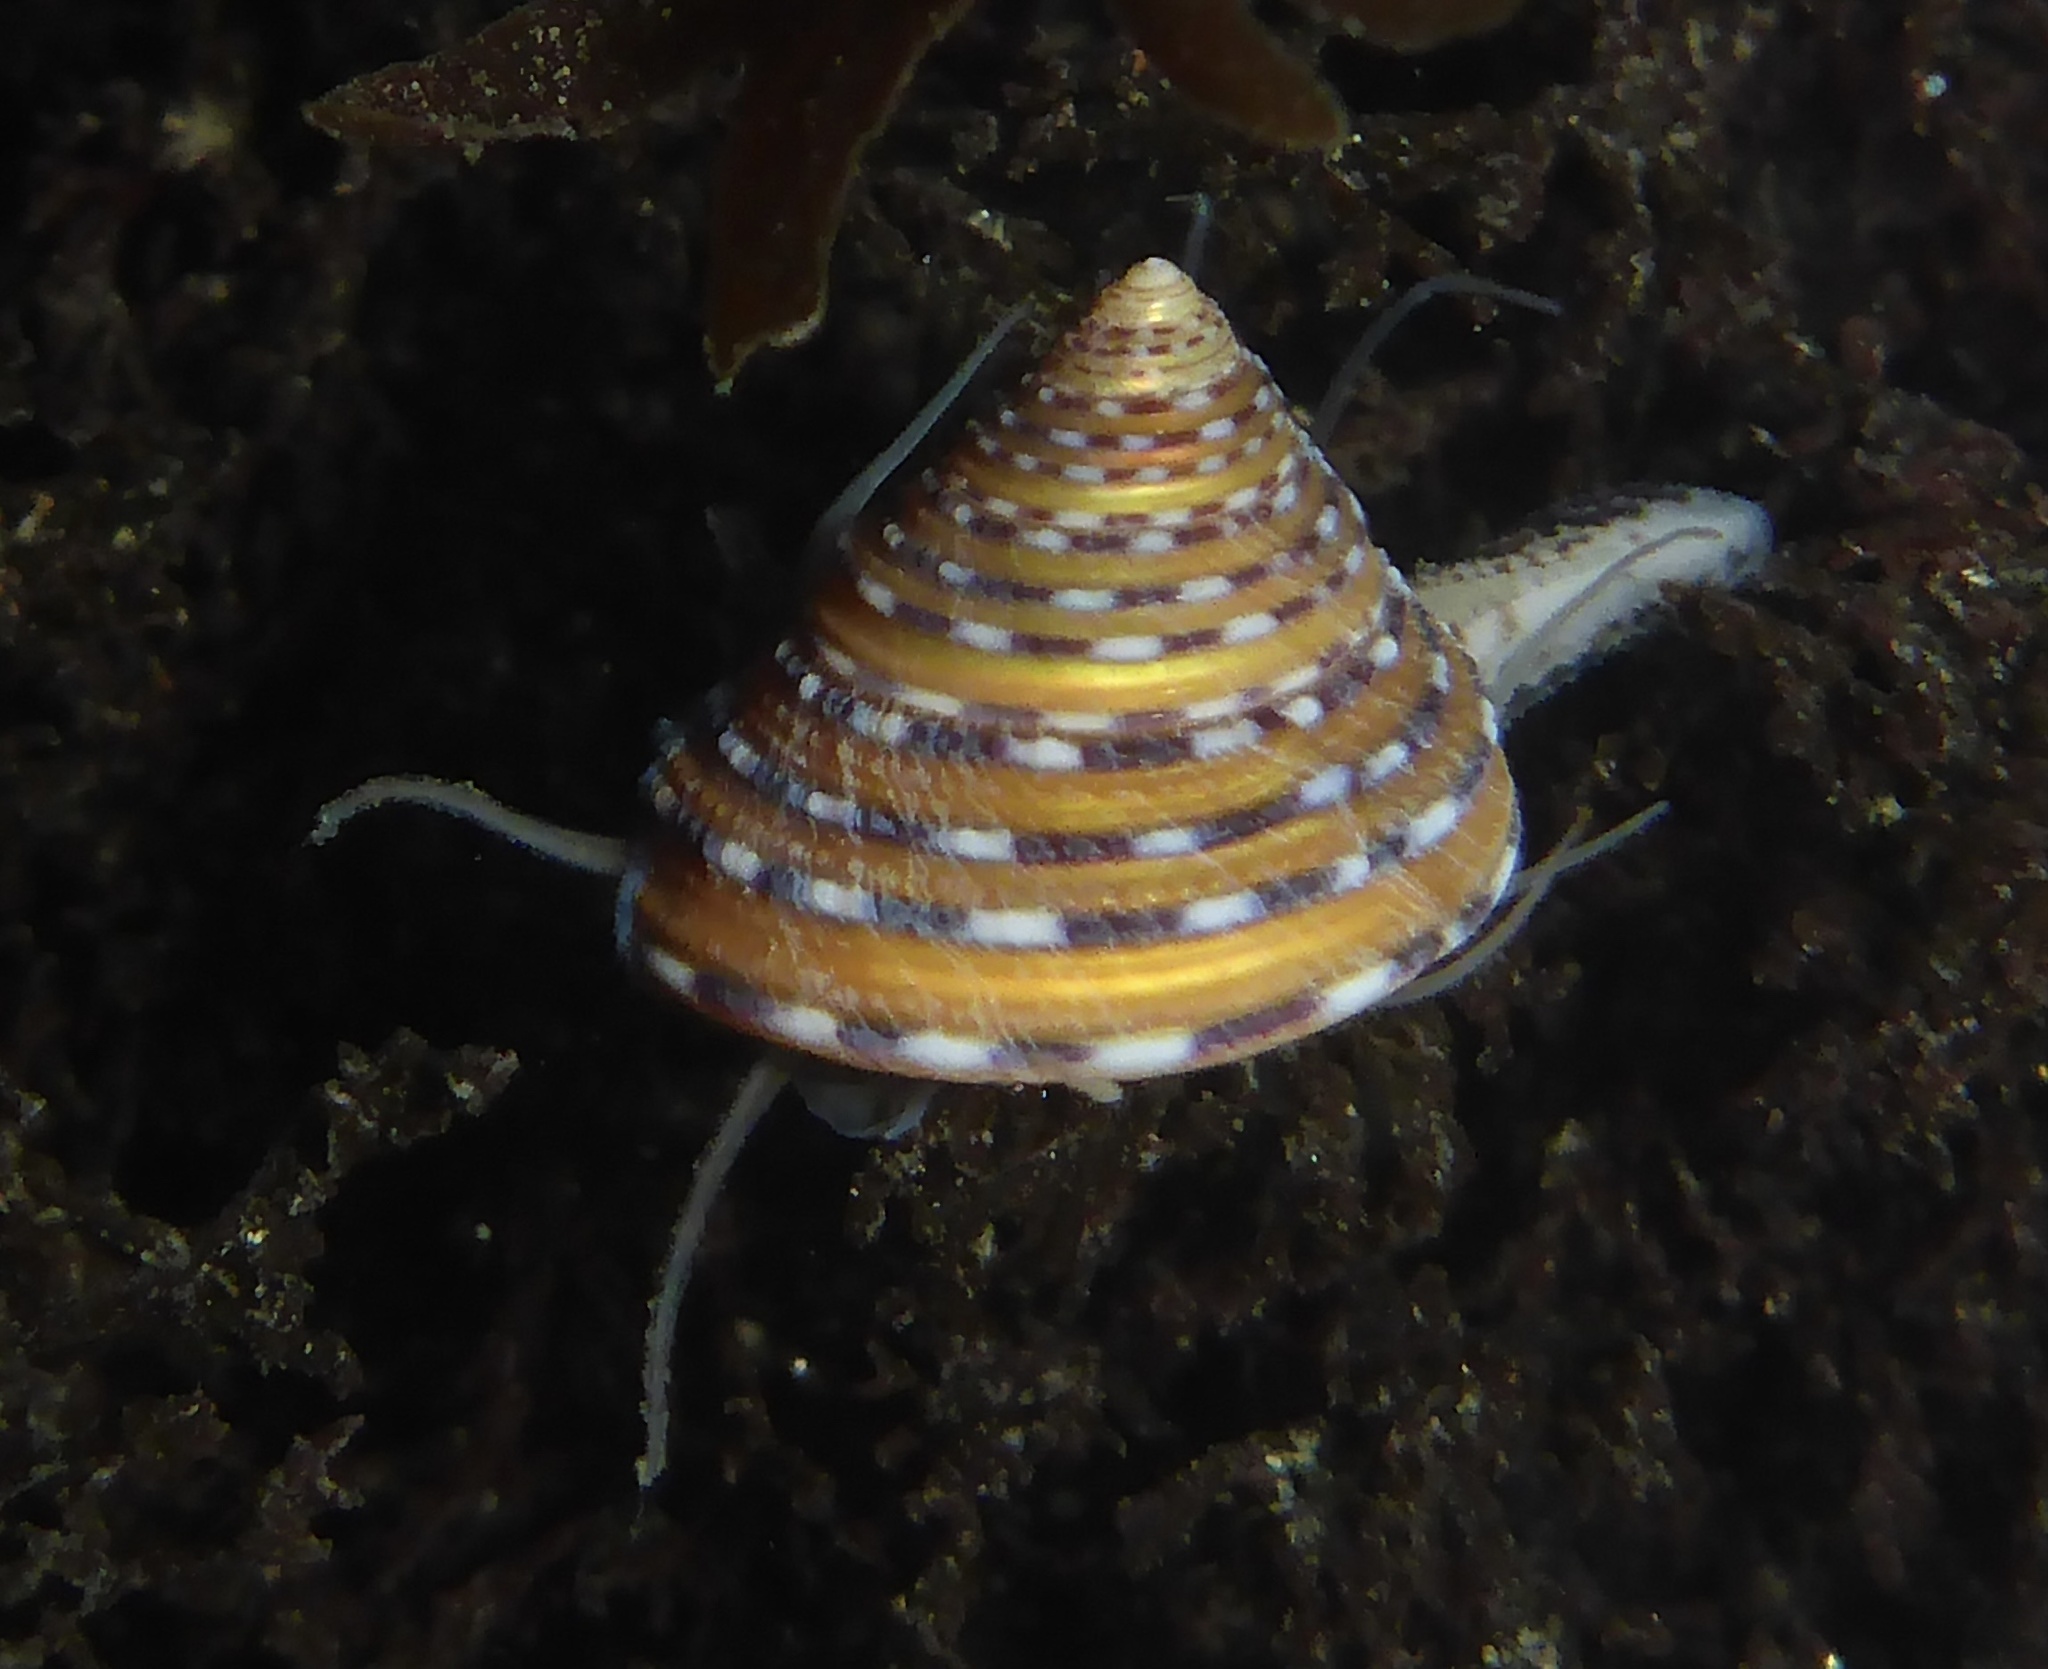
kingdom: Animalia
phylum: Mollusca
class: Gastropoda
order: Trochida
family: Calliostomatidae
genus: Calliostoma
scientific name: Calliostoma tricolor
